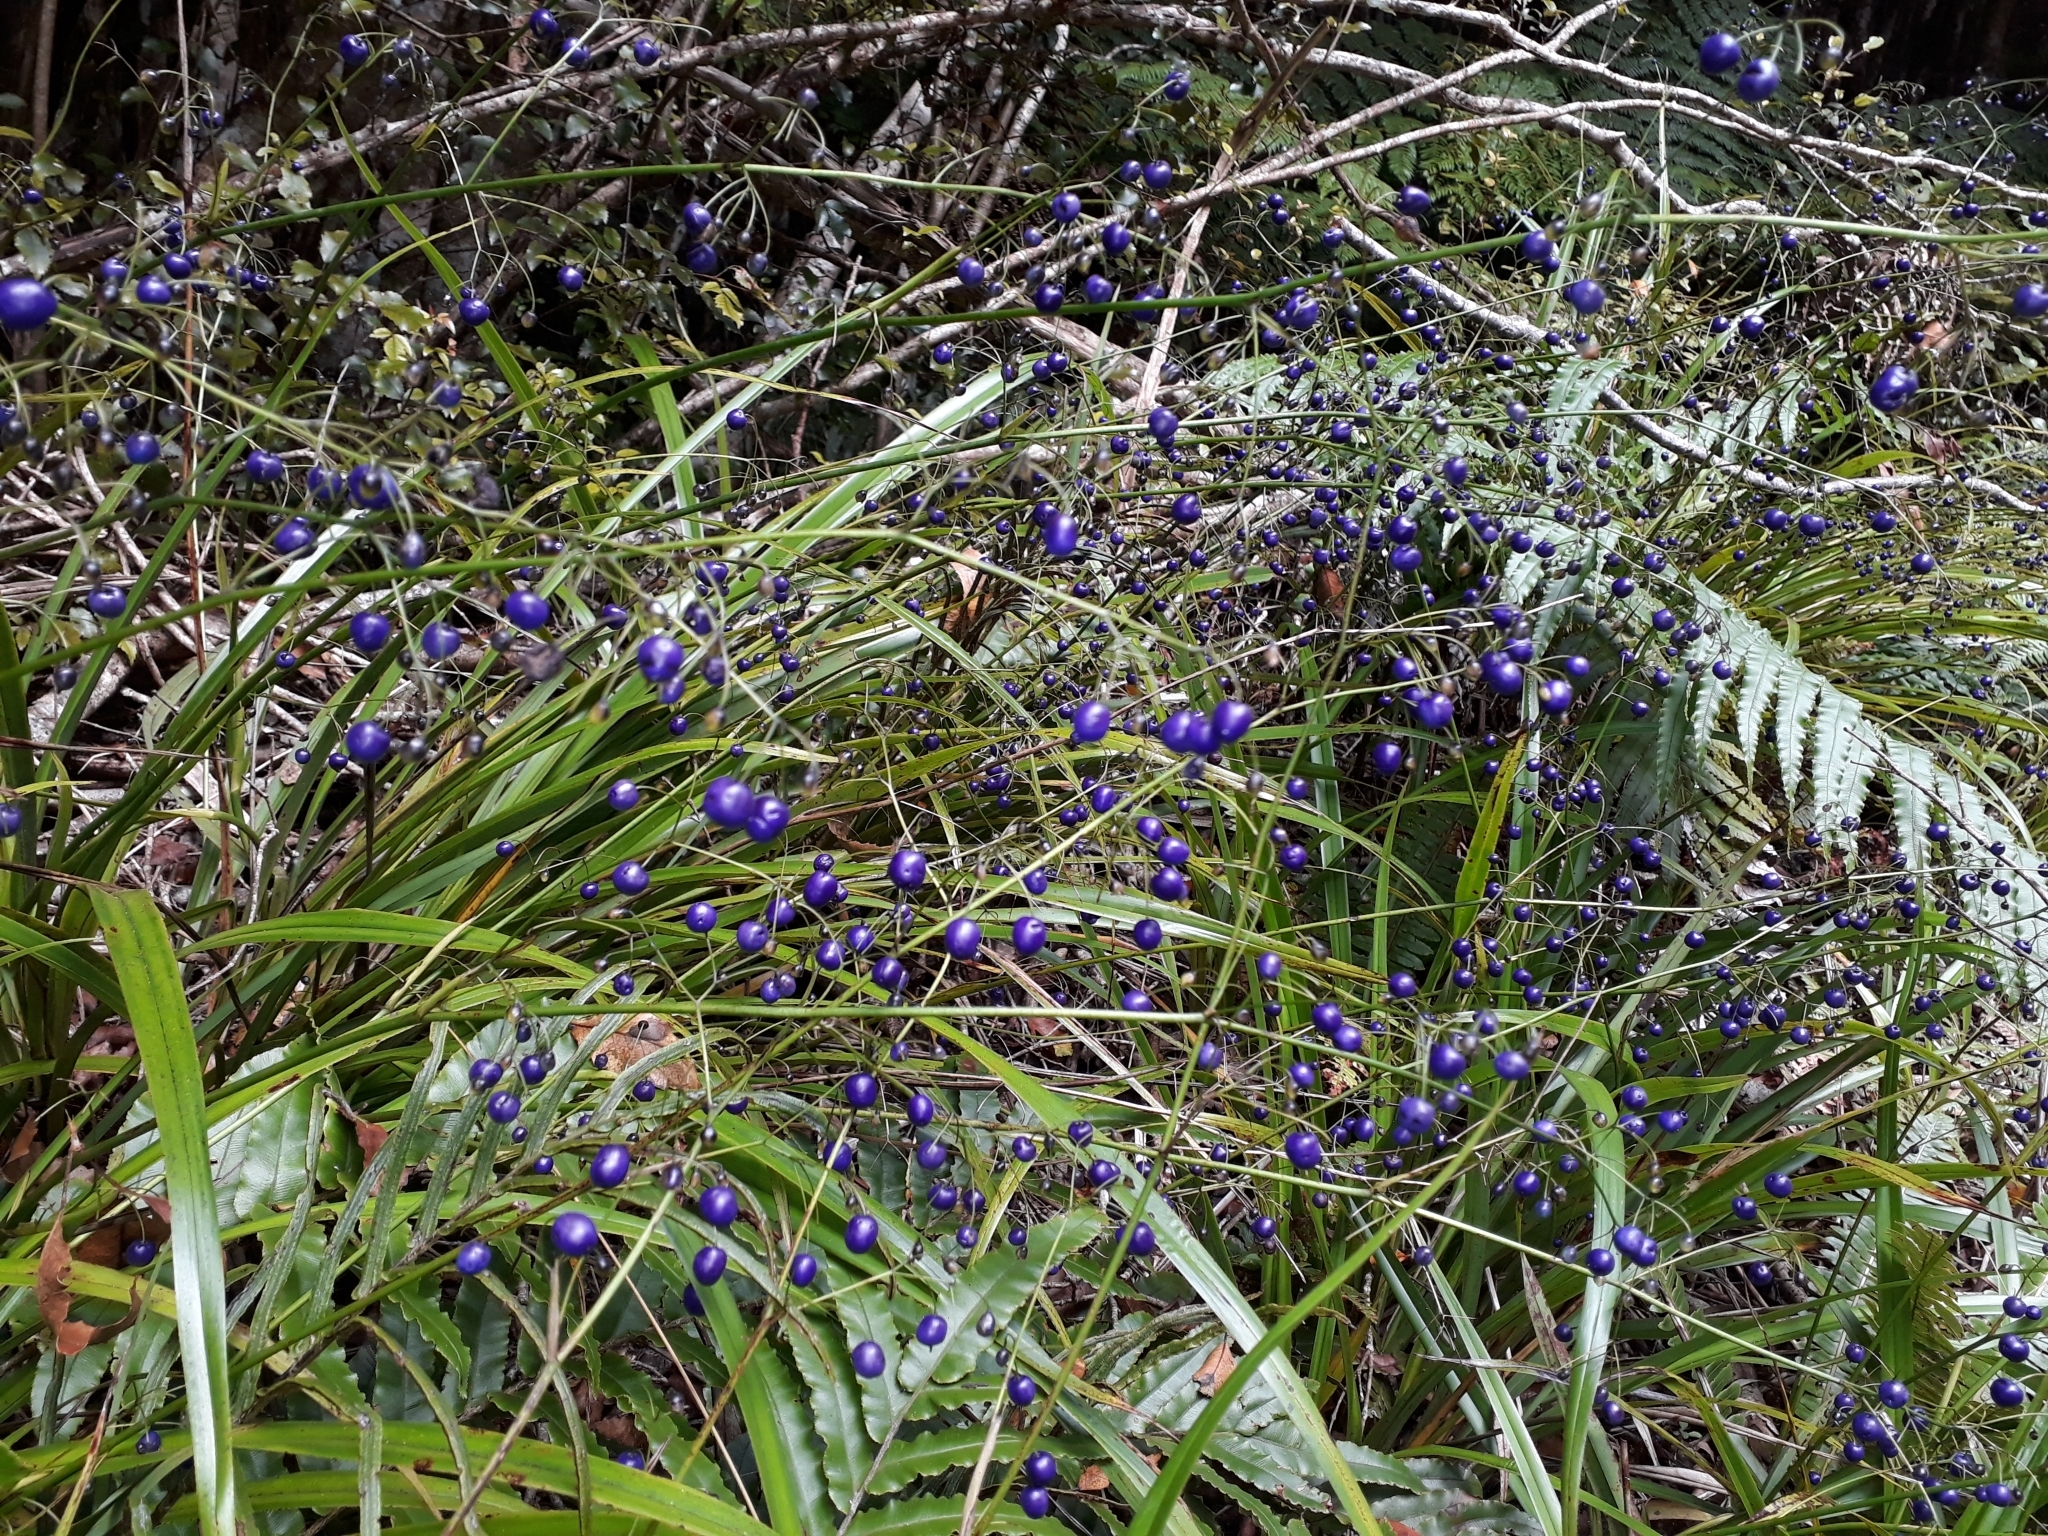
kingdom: Plantae
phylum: Tracheophyta
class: Liliopsida
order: Asparagales
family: Asphodelaceae
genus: Dianella
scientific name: Dianella nigra
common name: New zealand-blueberry
